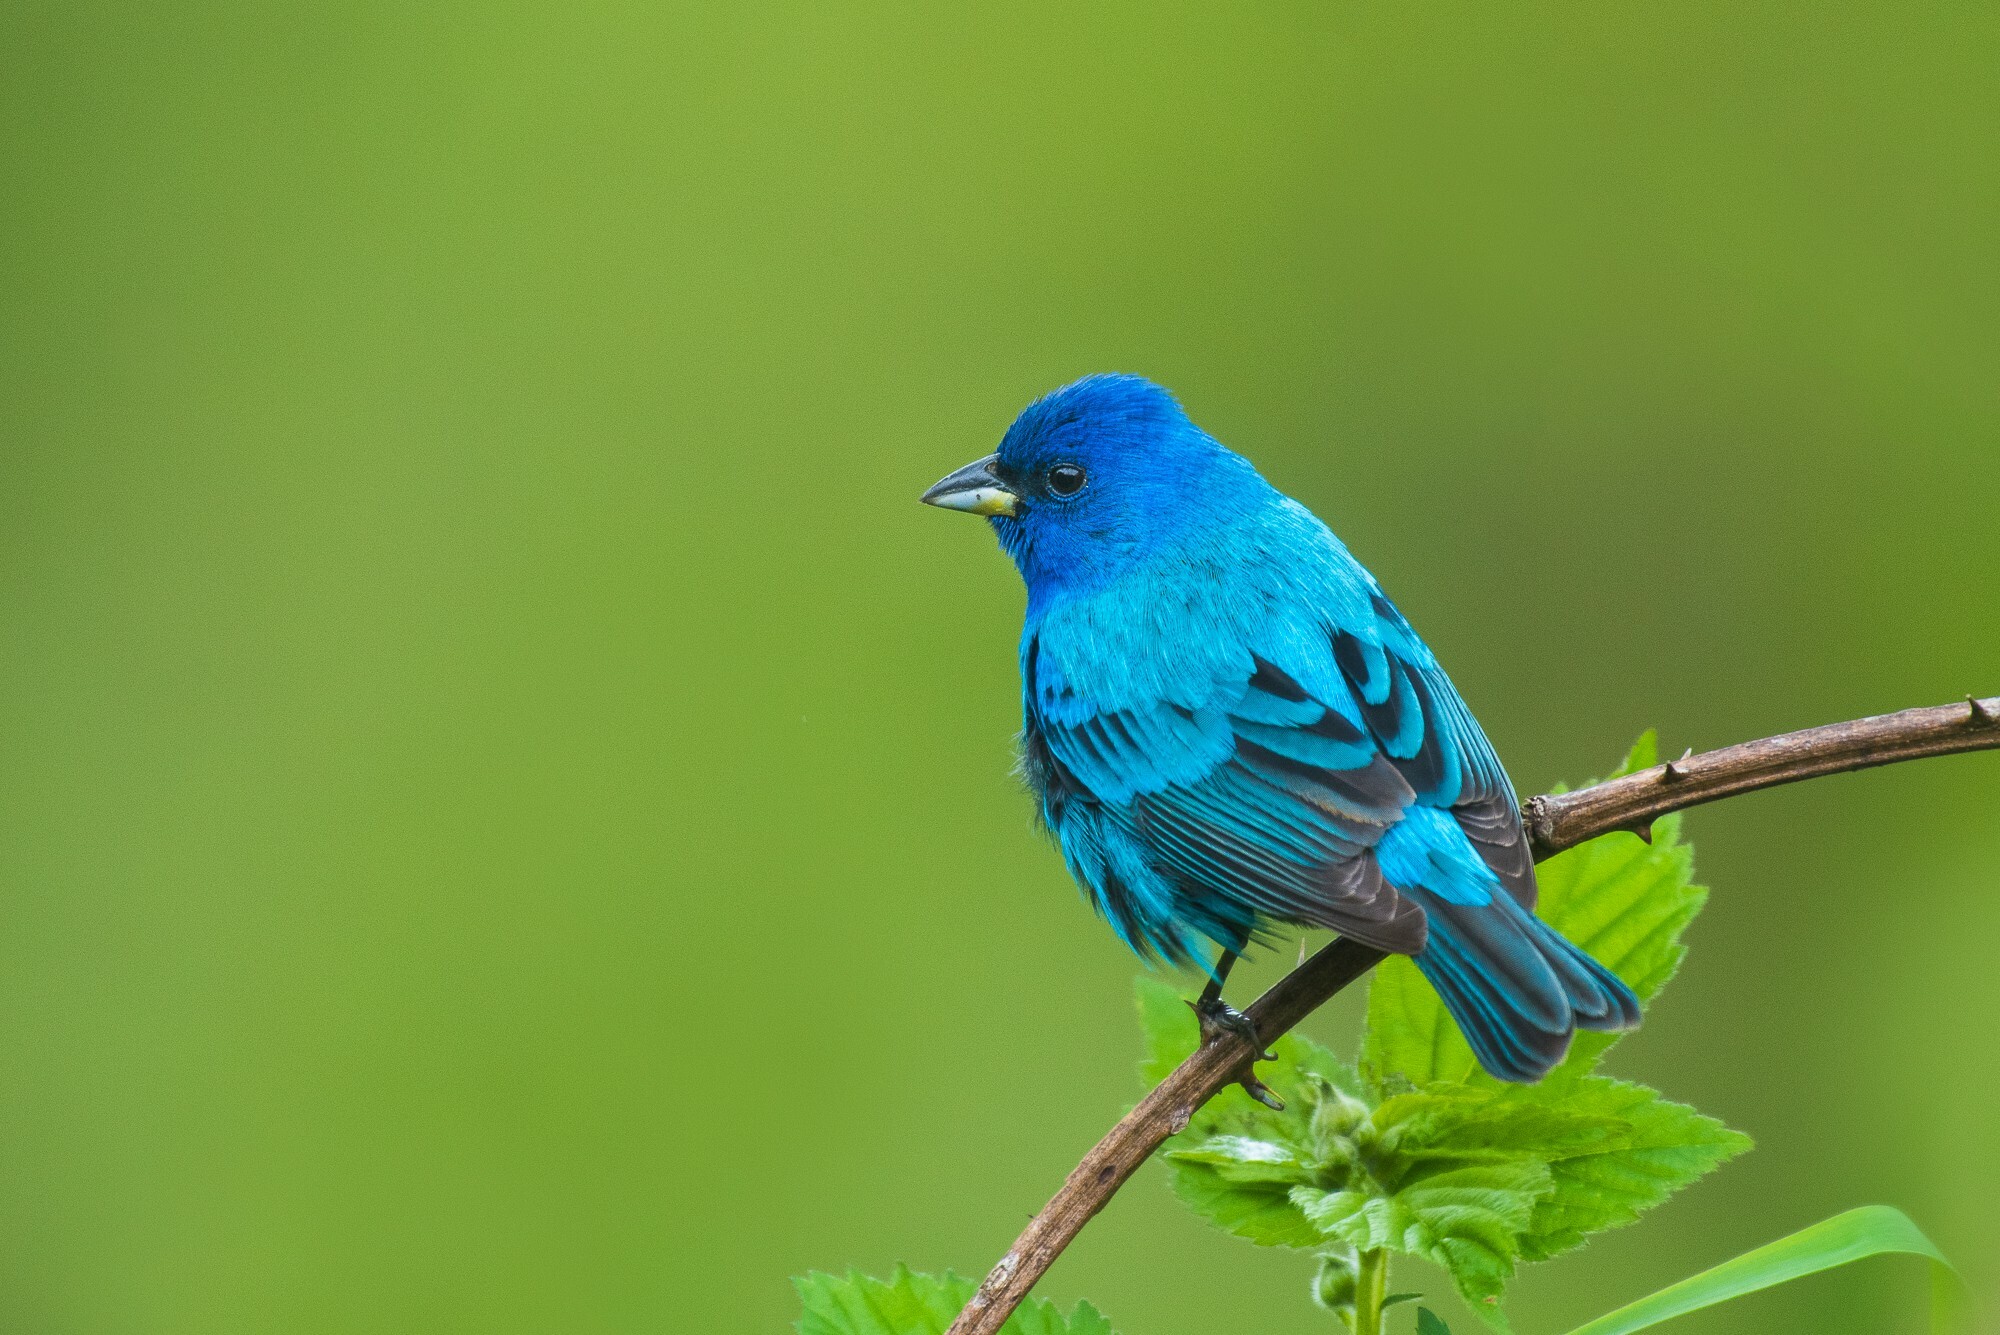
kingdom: Animalia
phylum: Chordata
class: Aves
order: Passeriformes
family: Cardinalidae
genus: Passerina
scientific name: Passerina cyanea
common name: Indigo bunting
